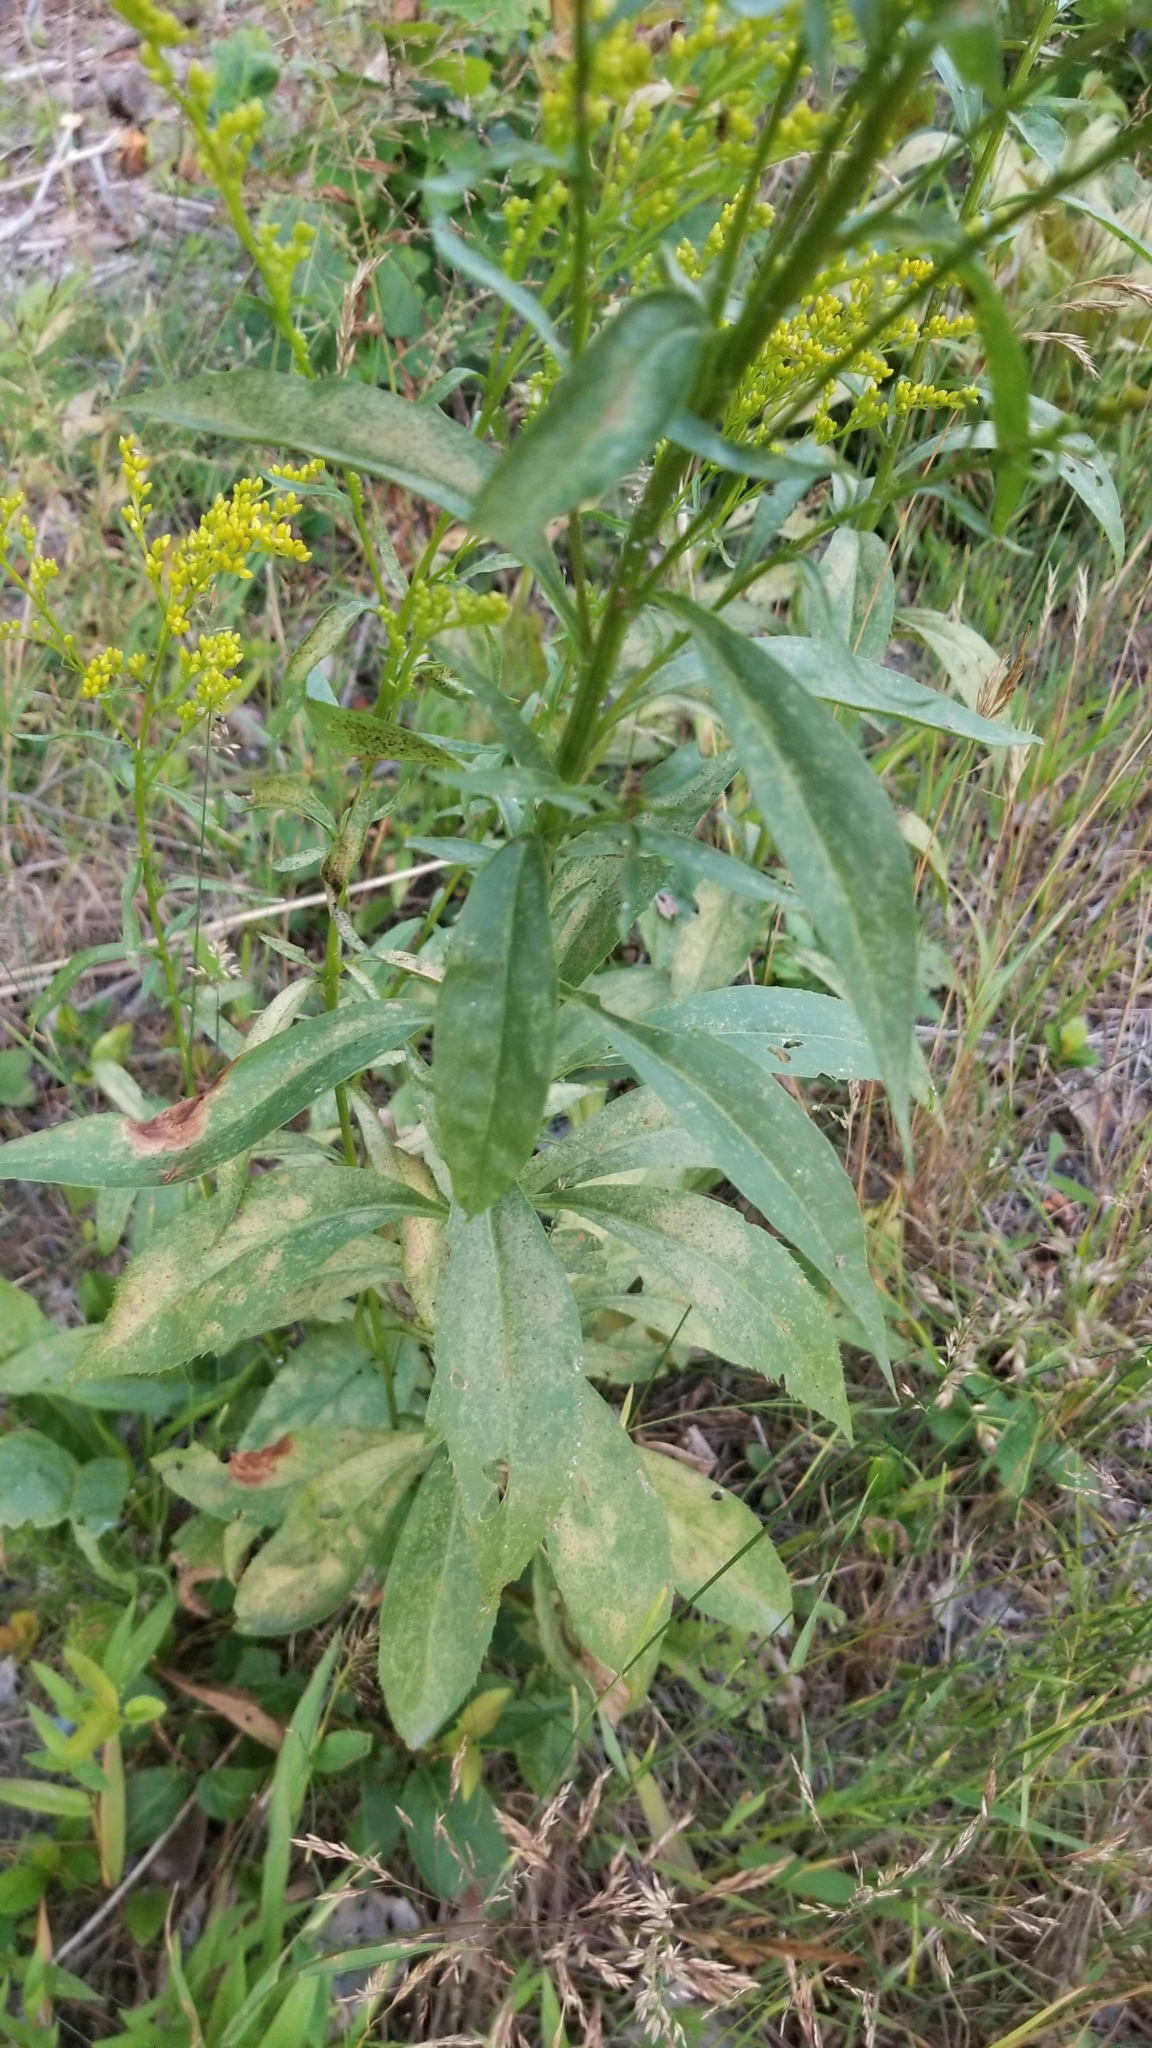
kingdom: Plantae
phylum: Tracheophyta
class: Magnoliopsida
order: Asterales
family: Asteraceae
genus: Solidago
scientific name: Solidago juncea
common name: Early goldenrod
